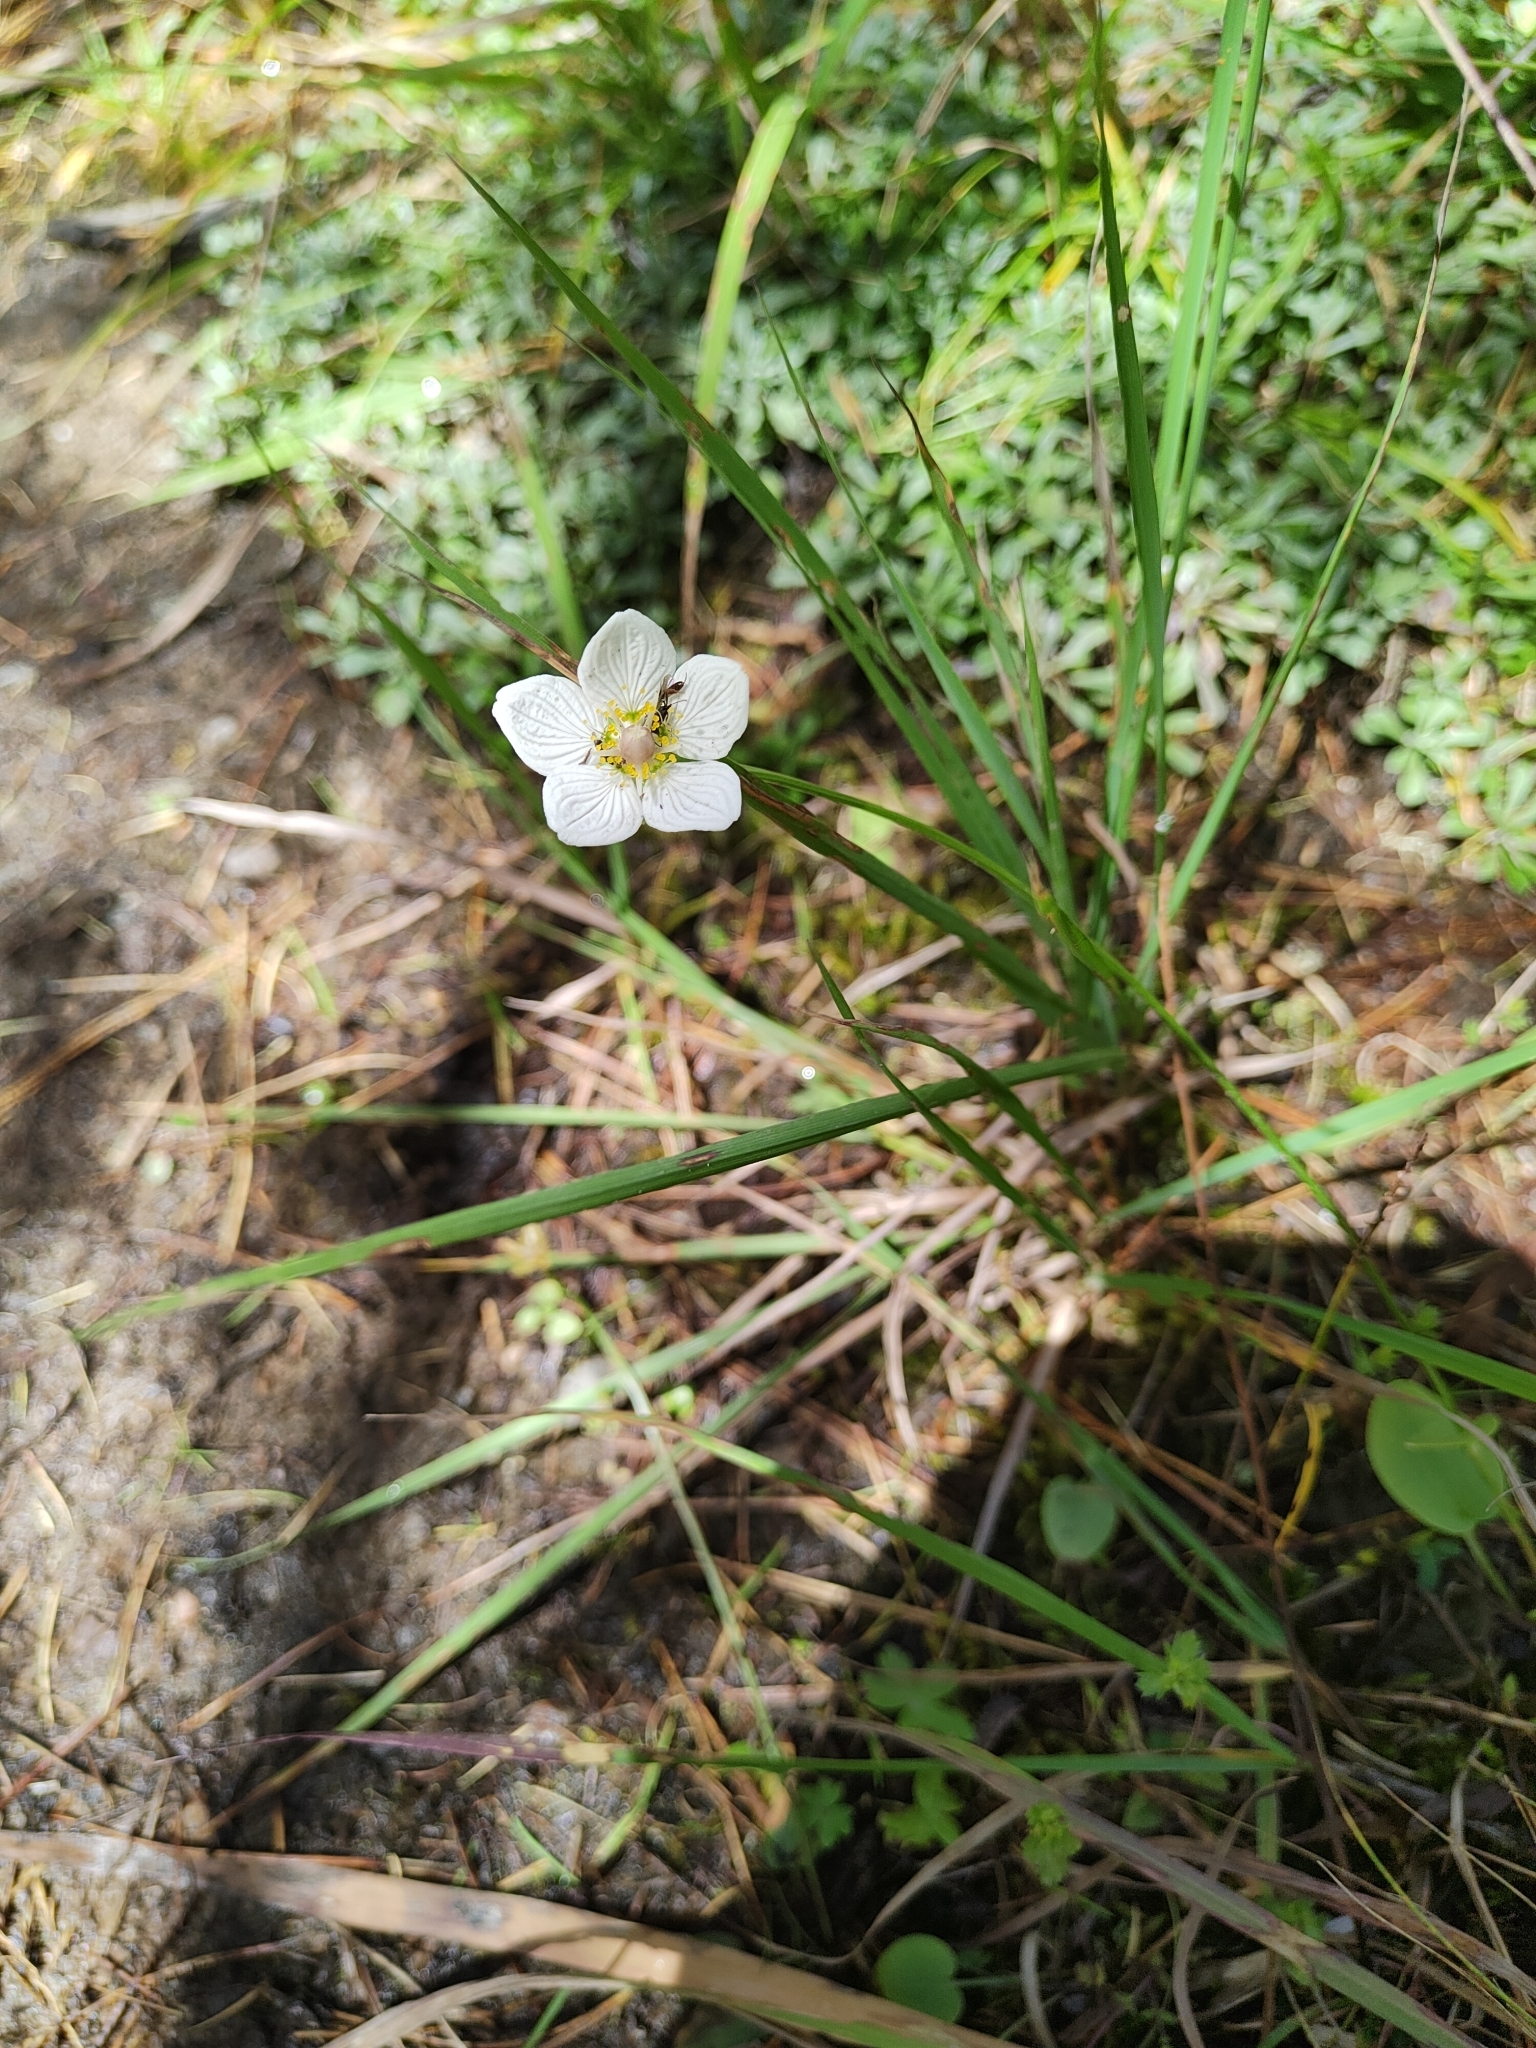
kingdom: Plantae
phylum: Tracheophyta
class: Magnoliopsida
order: Celastrales
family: Parnassiaceae
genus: Parnassia
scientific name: Parnassia palustris
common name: Grass-of-parnassus
